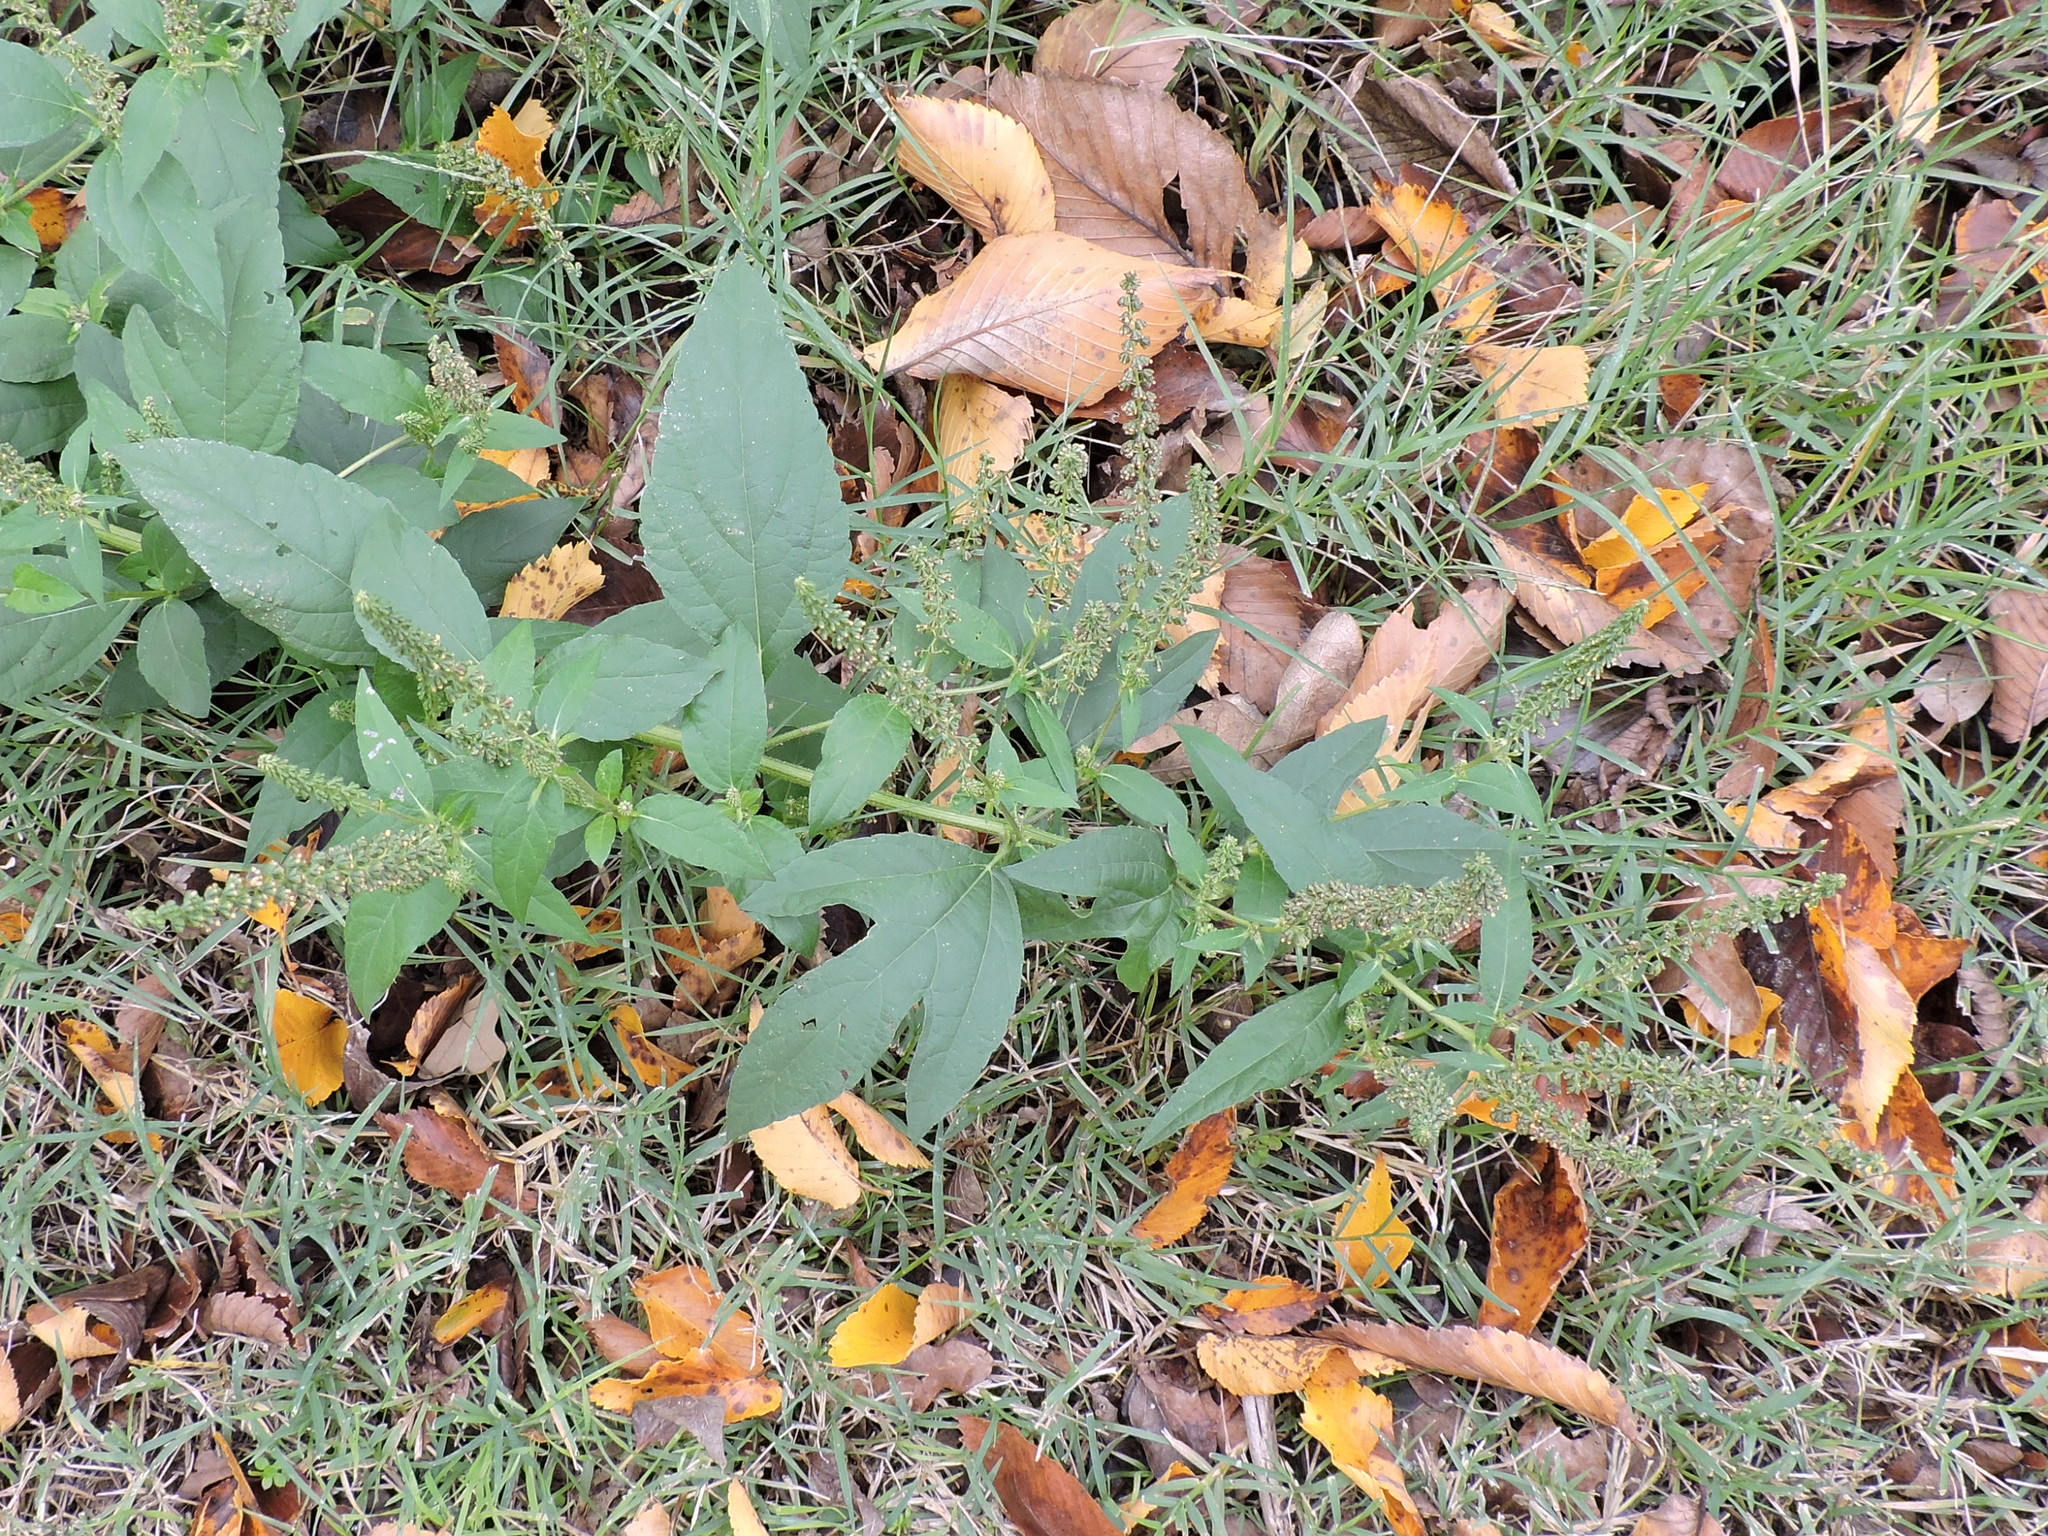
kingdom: Plantae
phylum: Tracheophyta
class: Magnoliopsida
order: Asterales
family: Asteraceae
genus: Ambrosia
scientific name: Ambrosia trifida
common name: Giant ragweed
